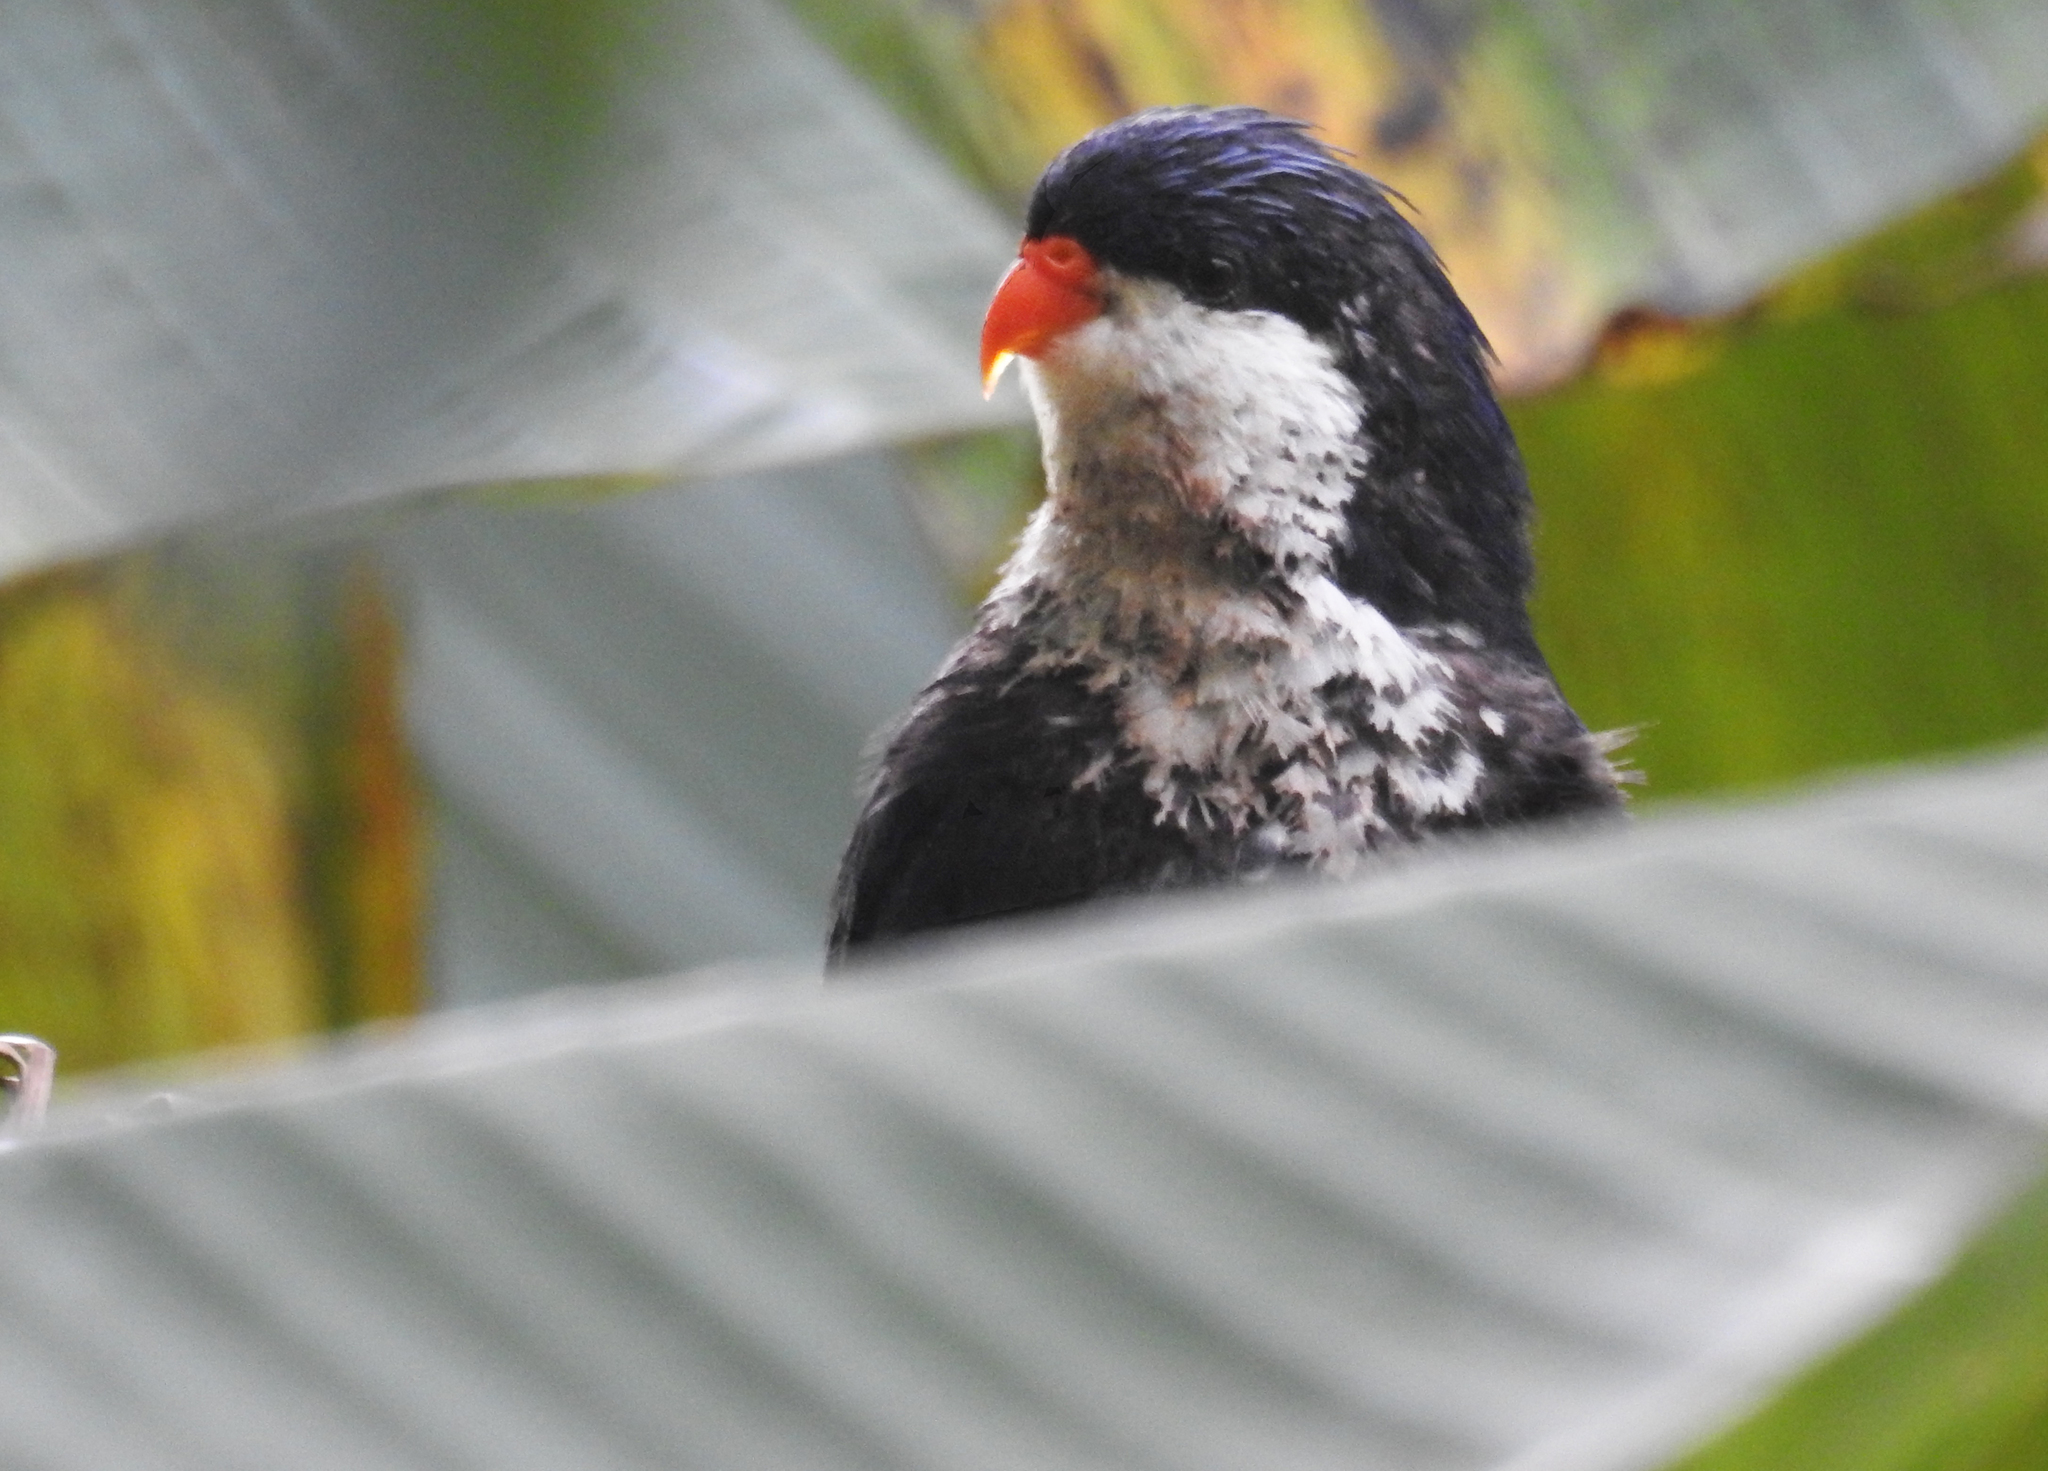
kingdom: Animalia
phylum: Chordata
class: Aves
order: Psittaciformes
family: Psittacidae
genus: Vini
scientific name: Vini peruviana
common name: Blue lorikeet
